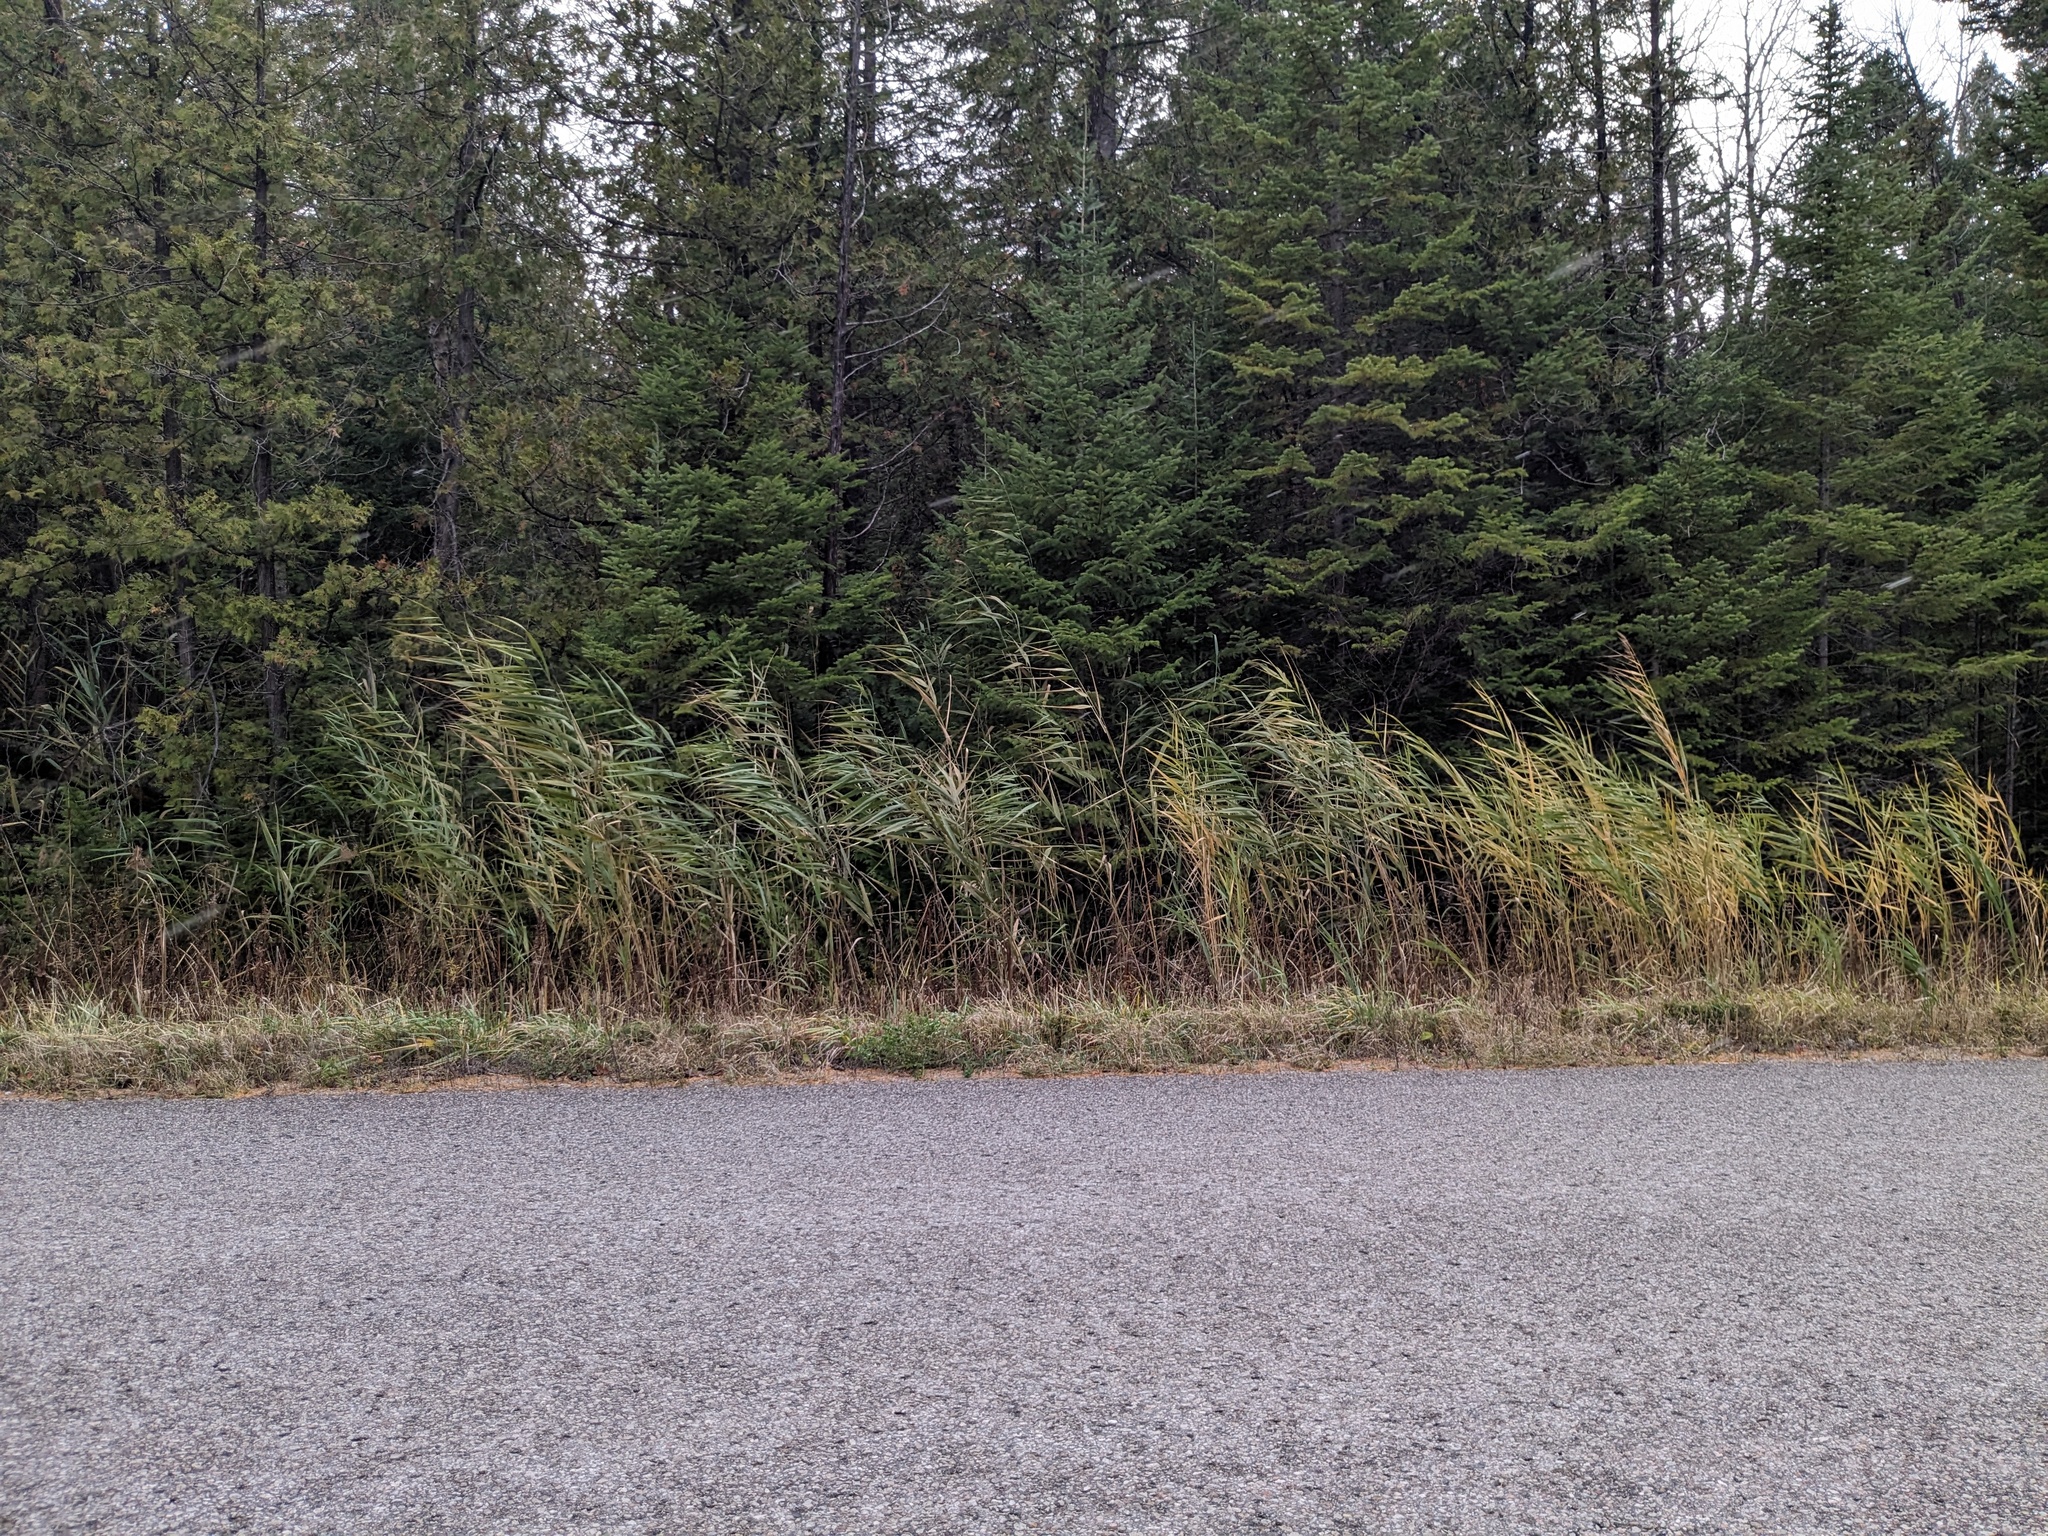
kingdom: Plantae
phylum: Tracheophyta
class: Liliopsida
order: Poales
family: Poaceae
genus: Phragmites
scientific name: Phragmites australis
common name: Common reed
